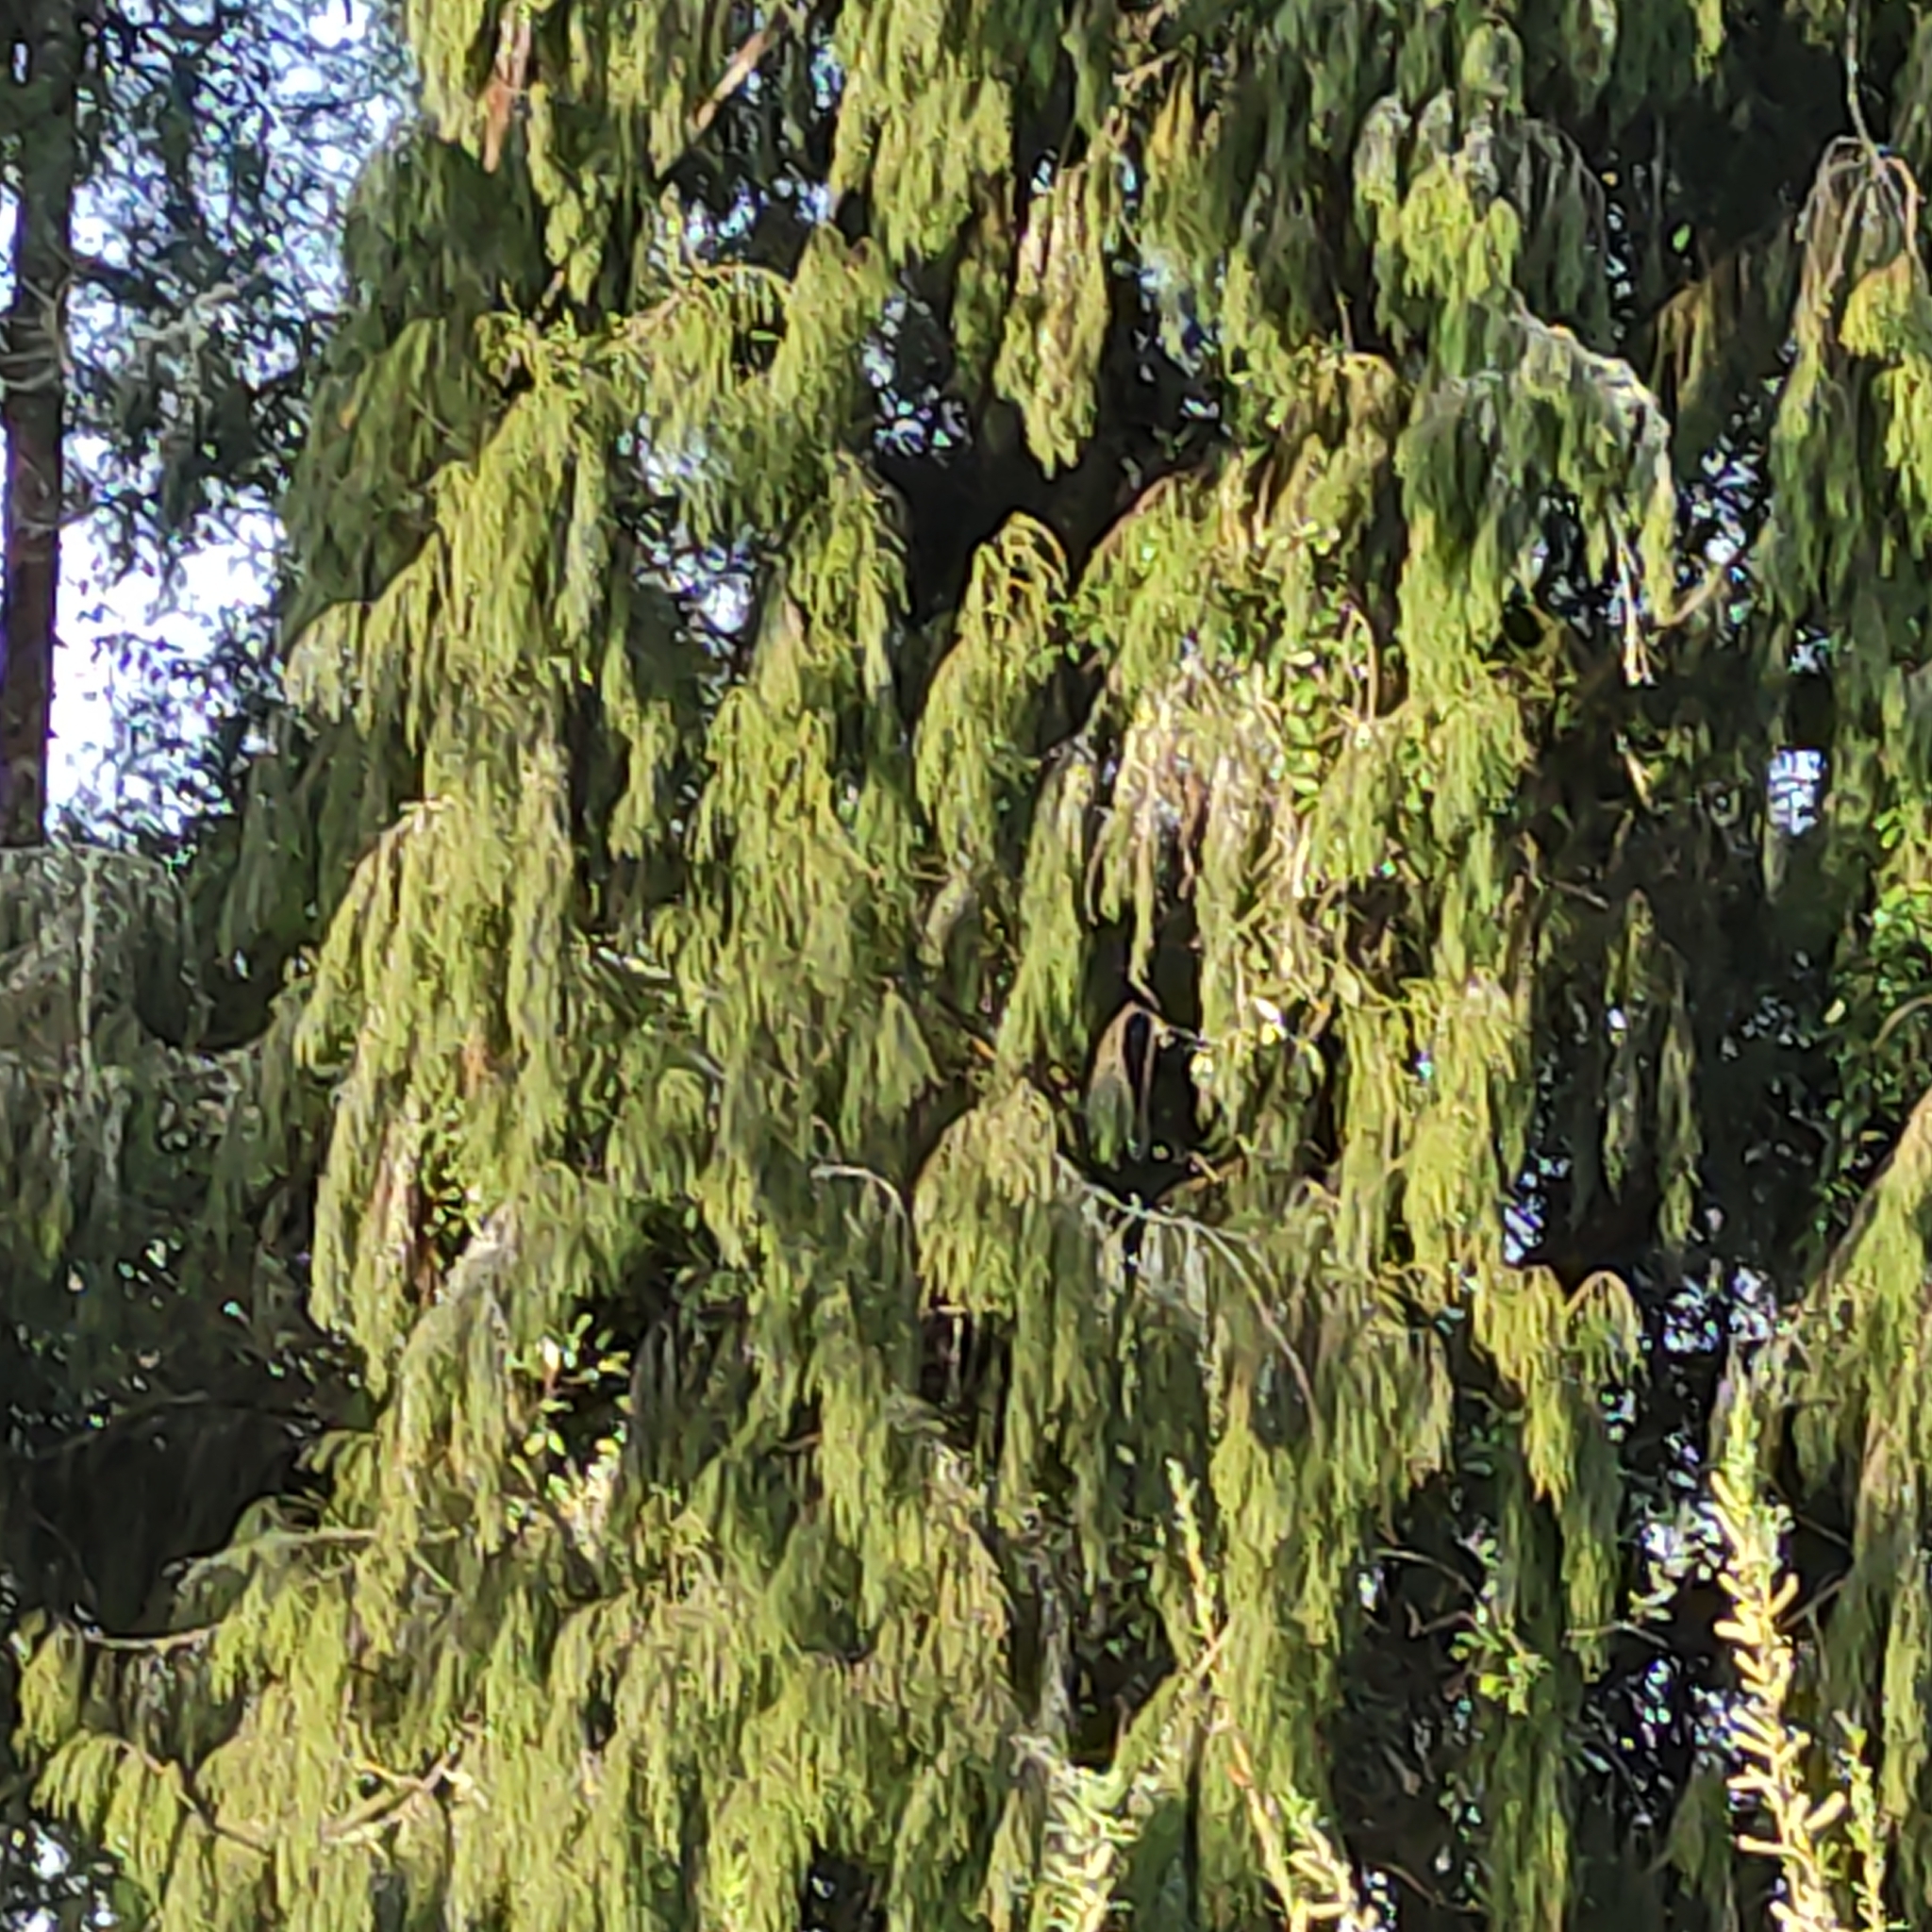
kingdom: Plantae
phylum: Tracheophyta
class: Pinopsida
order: Pinales
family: Podocarpaceae
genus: Dacrydium
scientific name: Dacrydium cupressinum
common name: Red pine
